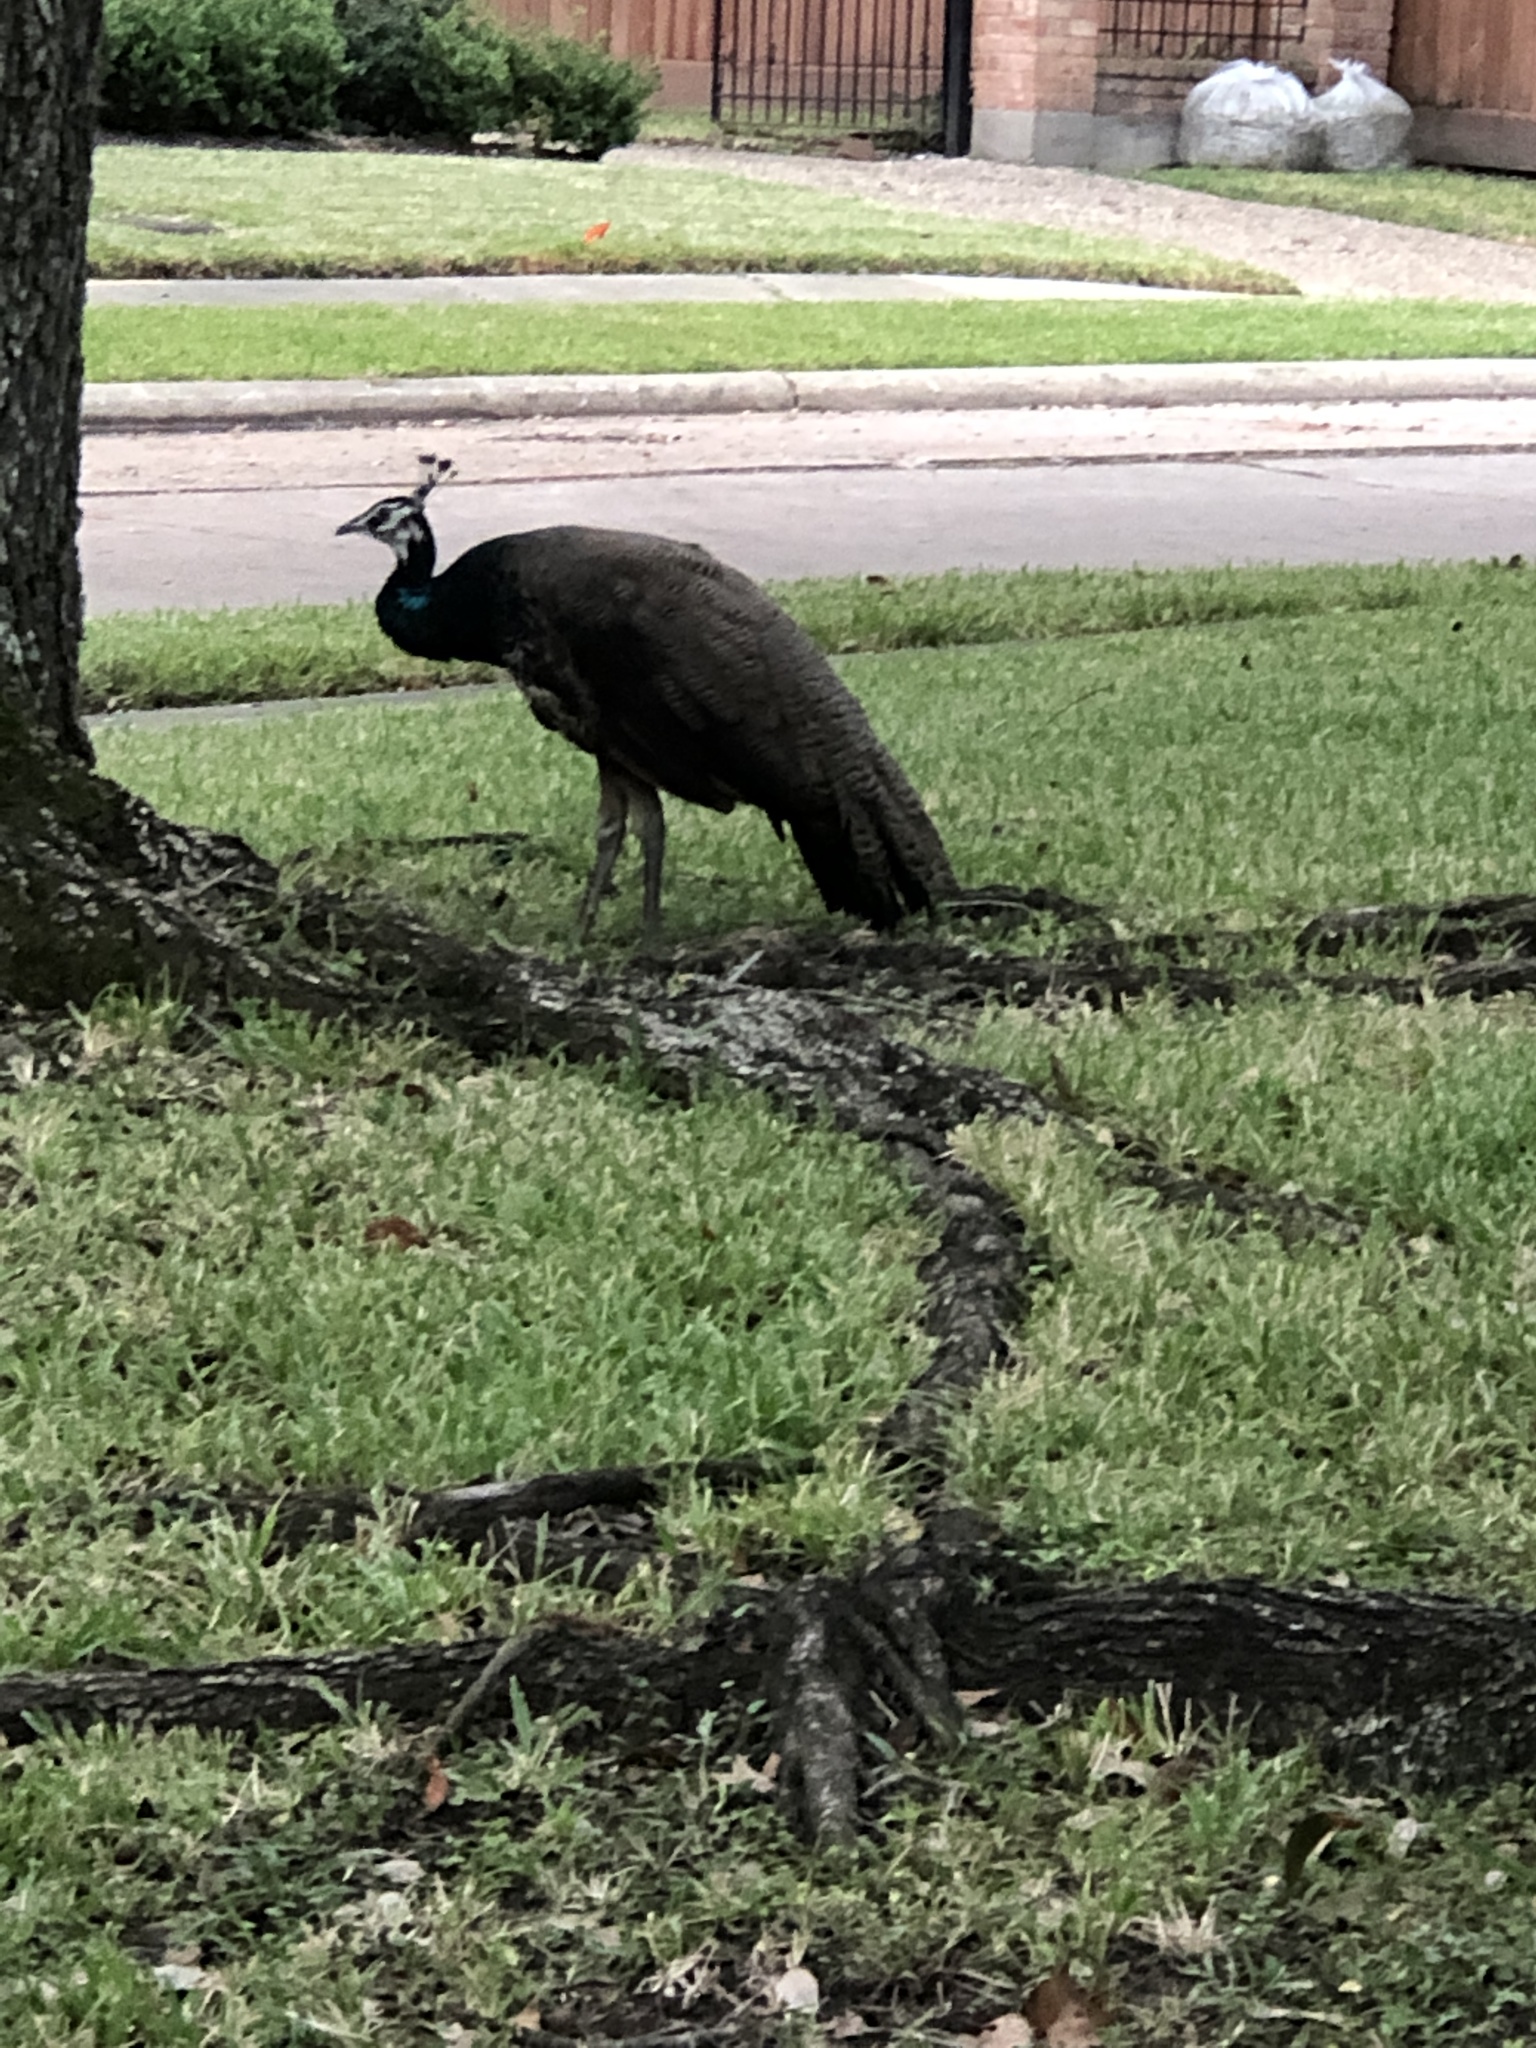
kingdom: Animalia
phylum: Chordata
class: Aves
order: Galliformes
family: Phasianidae
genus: Pavo
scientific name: Pavo cristatus
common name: Indian peafowl
